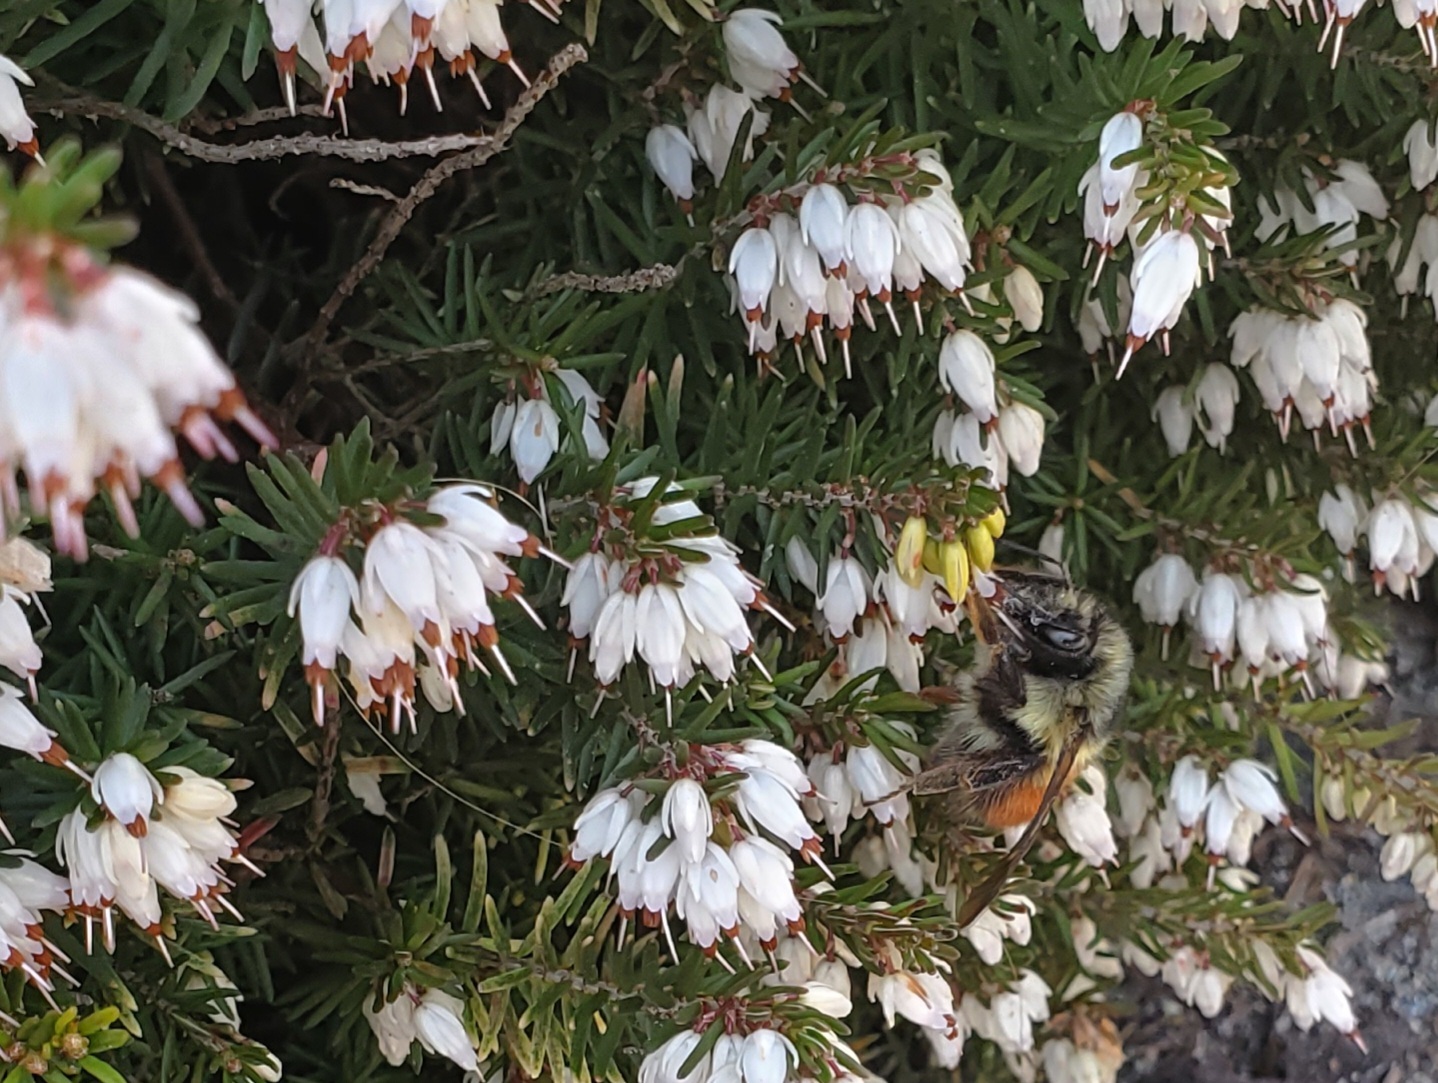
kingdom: Animalia
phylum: Arthropoda
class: Insecta
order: Hymenoptera
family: Apidae
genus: Bombus
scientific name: Bombus melanopygus
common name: Black tail bumble bee
